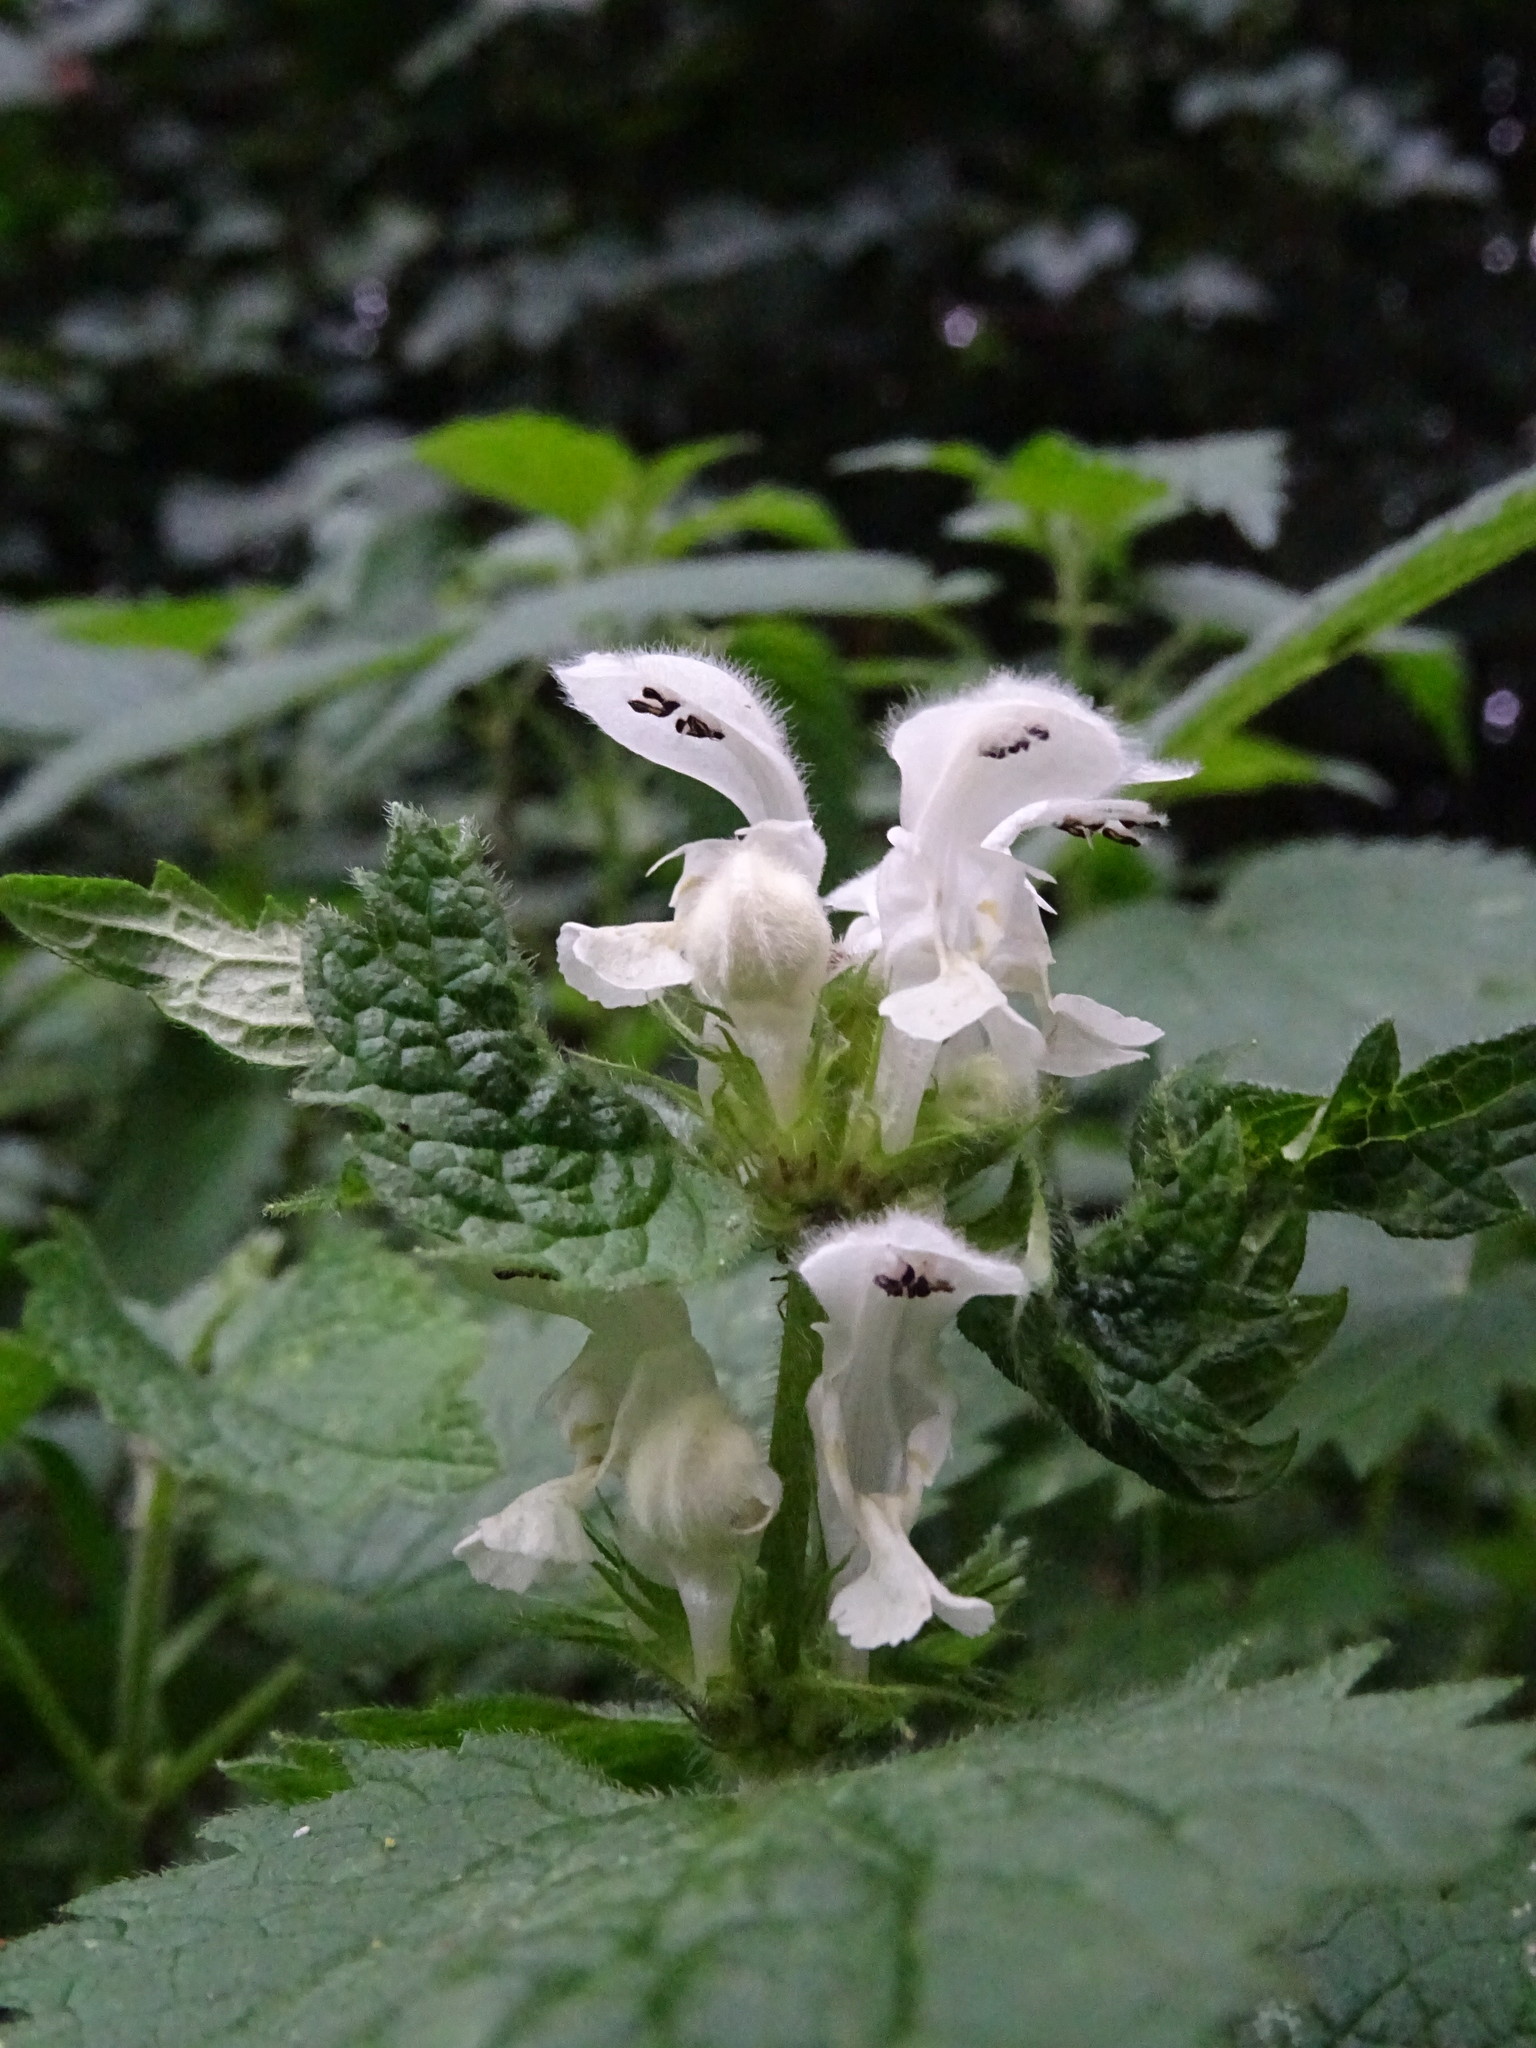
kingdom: Plantae
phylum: Tracheophyta
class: Magnoliopsida
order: Lamiales
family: Lamiaceae
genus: Lamium
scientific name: Lamium album
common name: White dead-nettle
